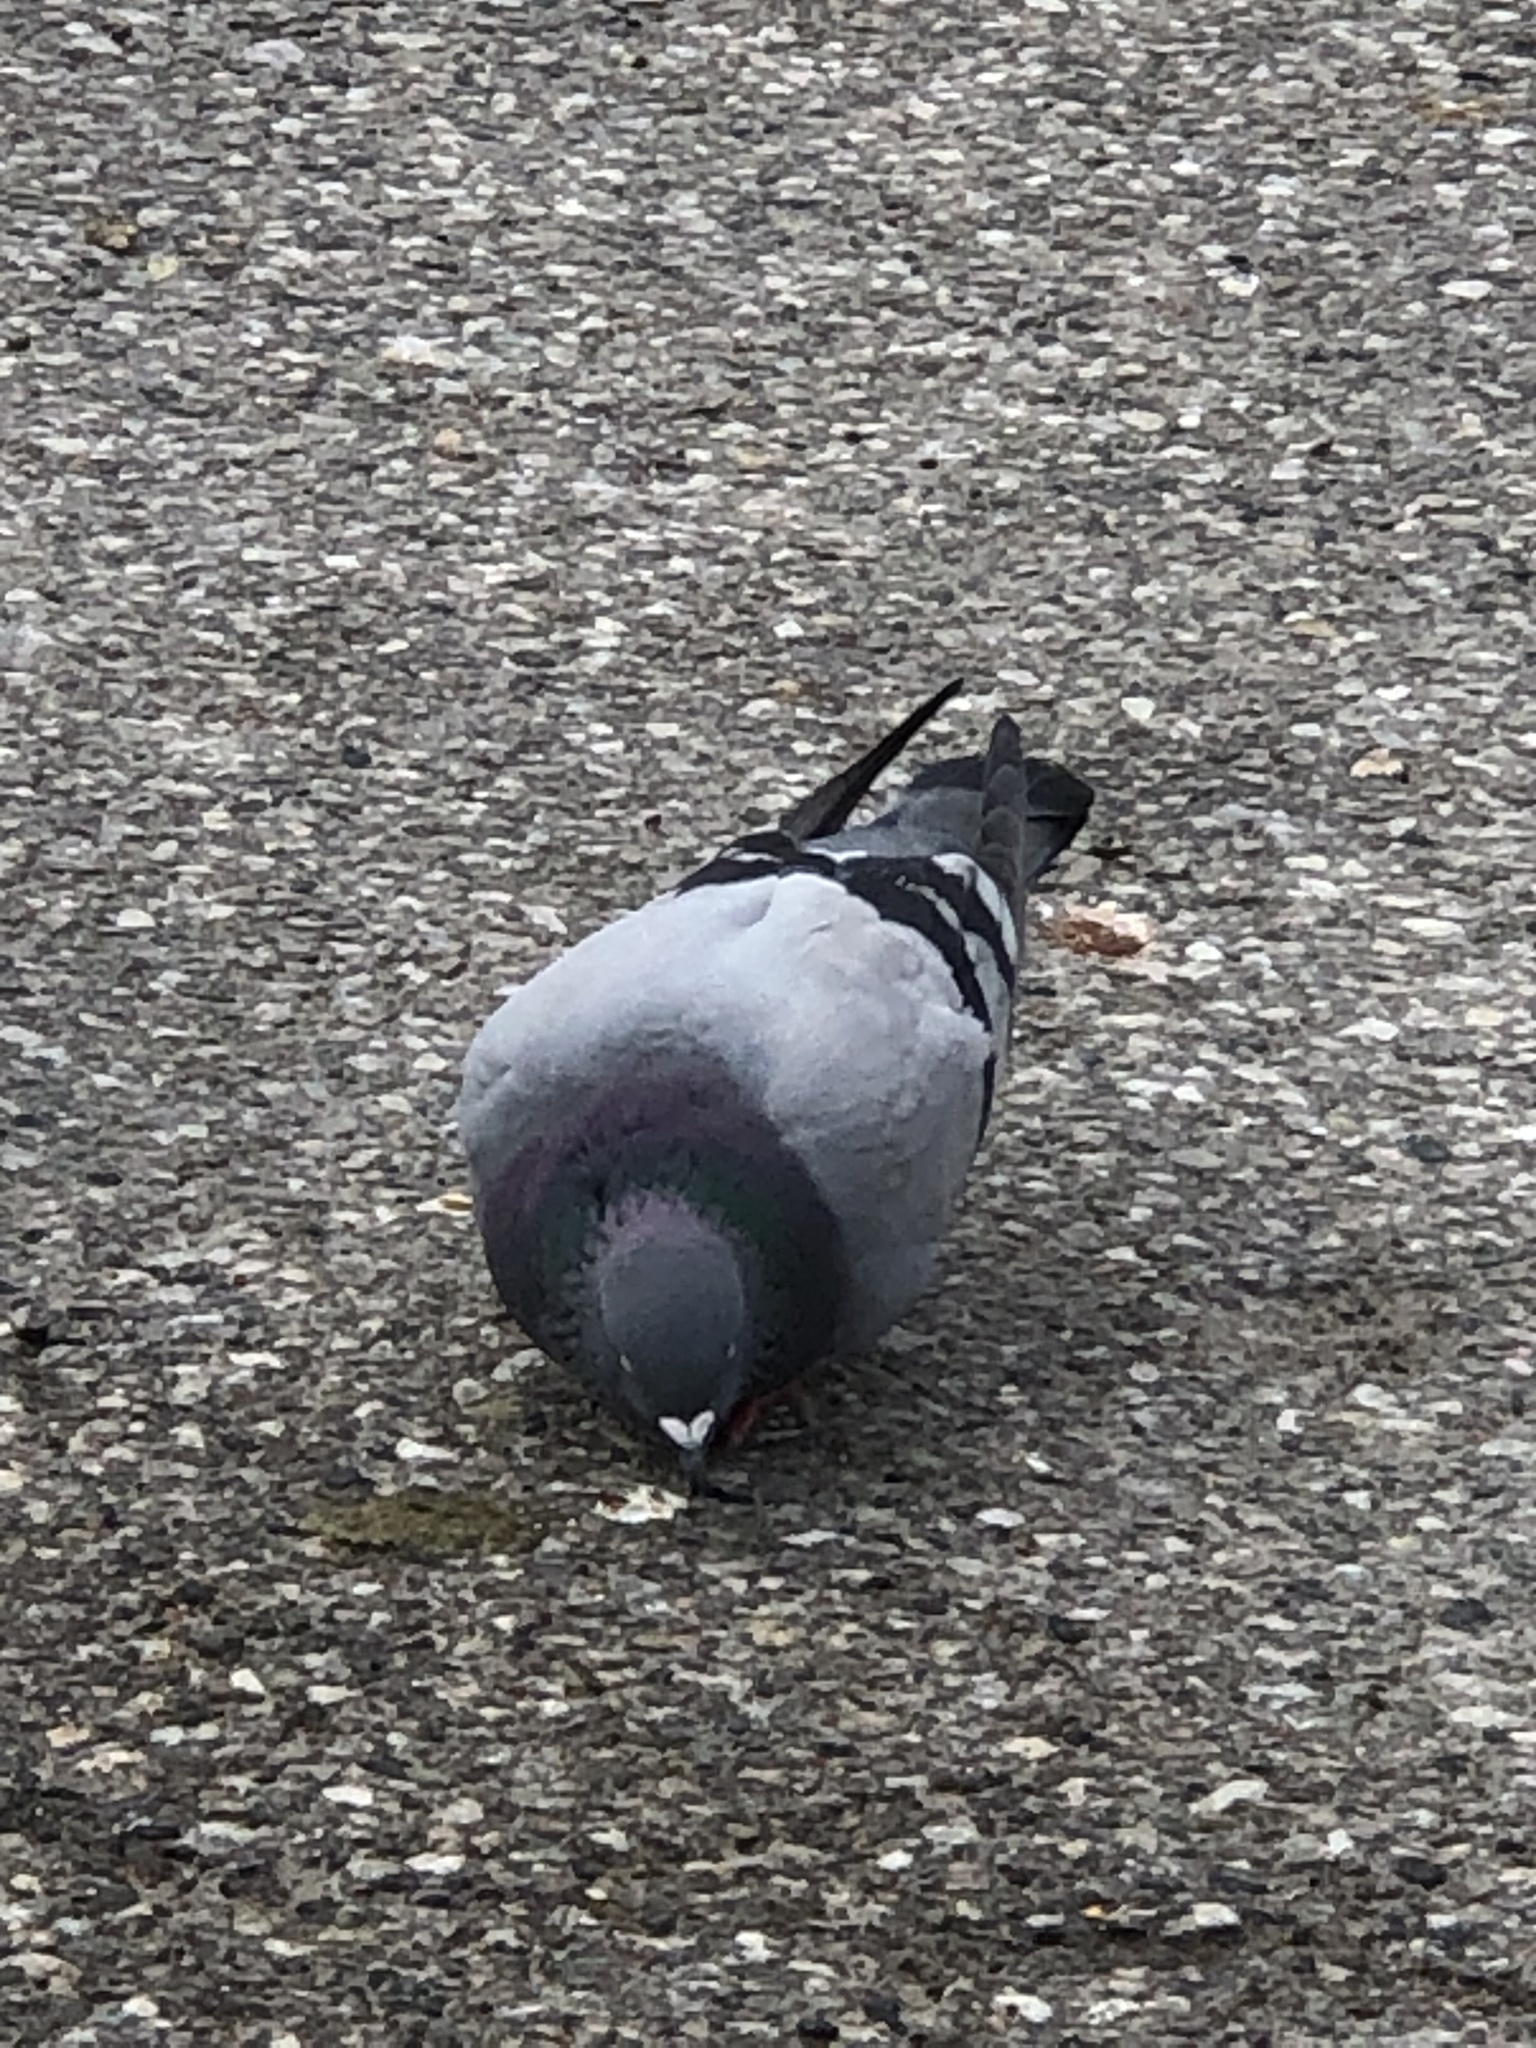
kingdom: Animalia
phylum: Chordata
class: Aves
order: Columbiformes
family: Columbidae
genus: Columba
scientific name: Columba livia
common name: Rock pigeon
